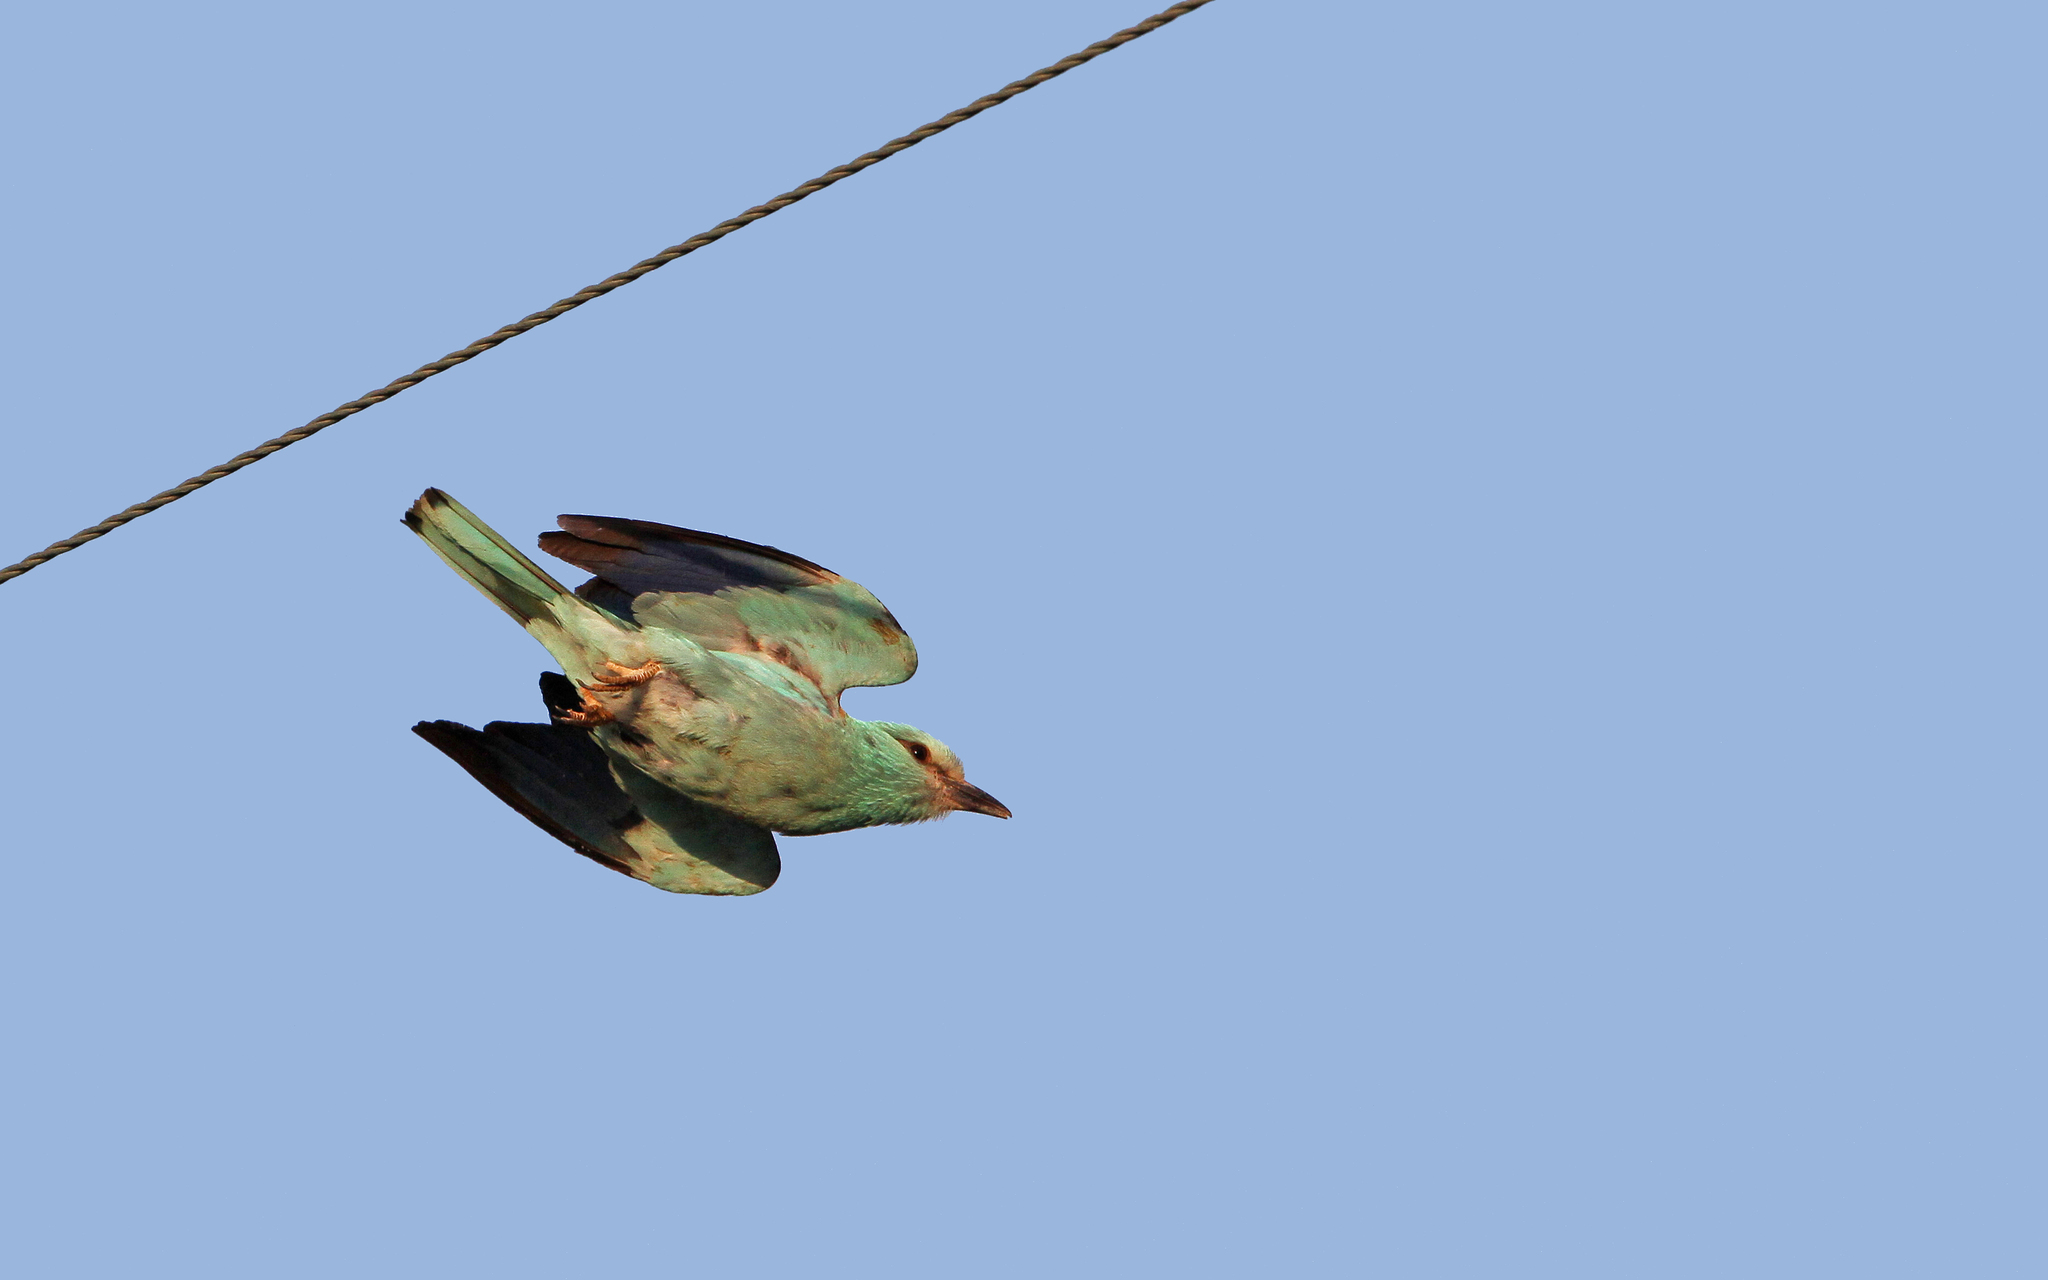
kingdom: Animalia
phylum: Chordata
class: Aves
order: Coraciiformes
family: Coraciidae
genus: Coracias
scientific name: Coracias garrulus
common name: European roller
